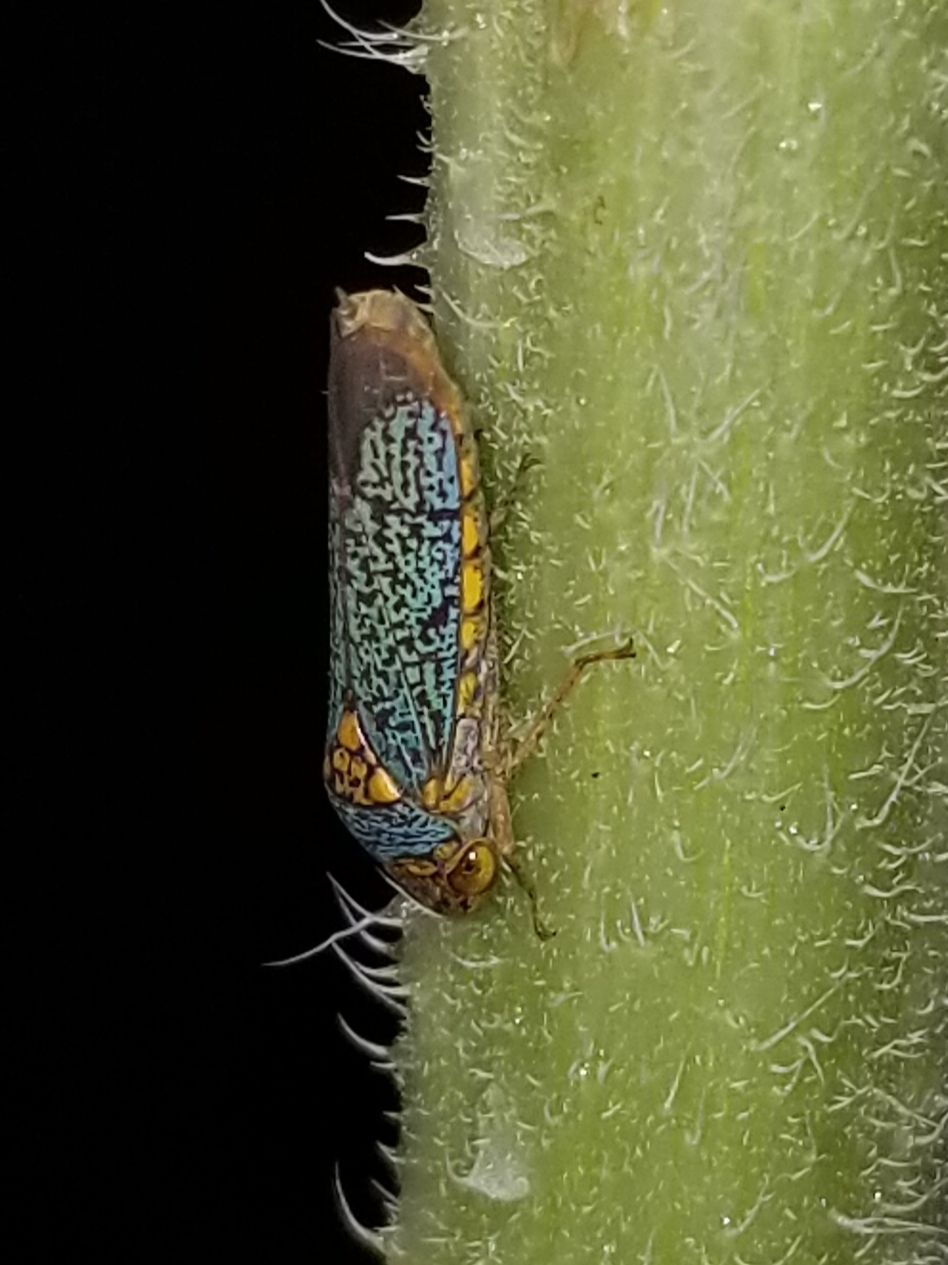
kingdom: Animalia
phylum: Arthropoda
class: Insecta
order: Hemiptera
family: Cicadellidae
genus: Oncometopia
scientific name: Oncometopia orbona
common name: Broad-headed sharpshooter
